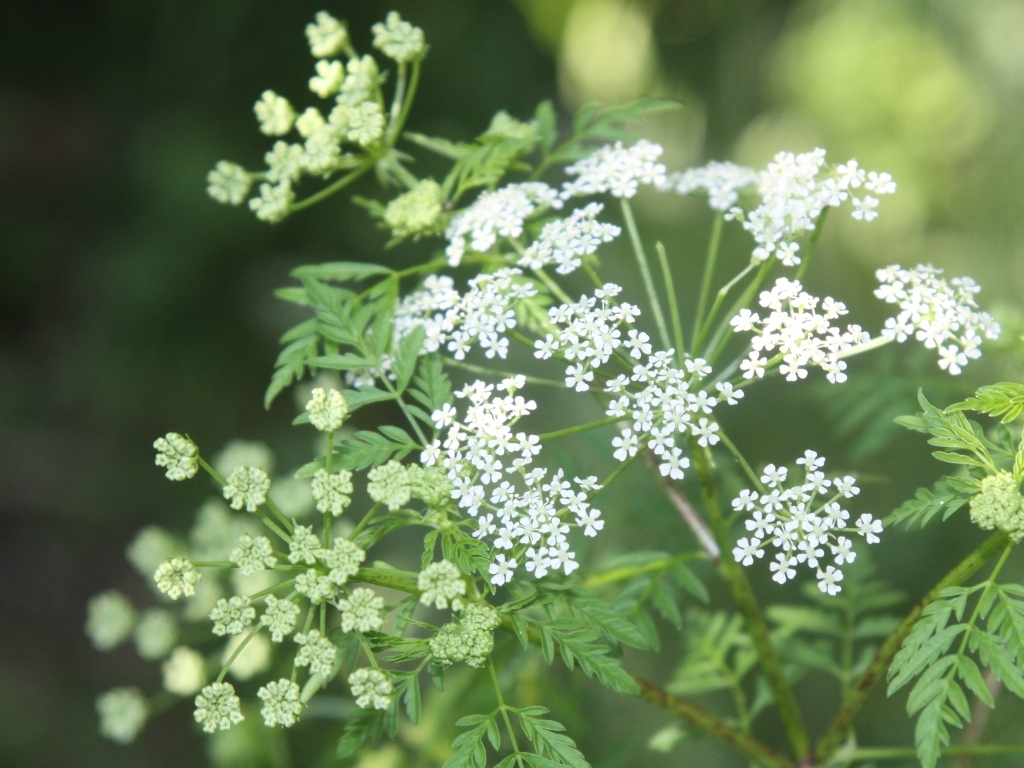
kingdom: Plantae
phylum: Tracheophyta
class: Magnoliopsida
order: Apiales
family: Apiaceae
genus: Conium
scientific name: Conium maculatum
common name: Hemlock
